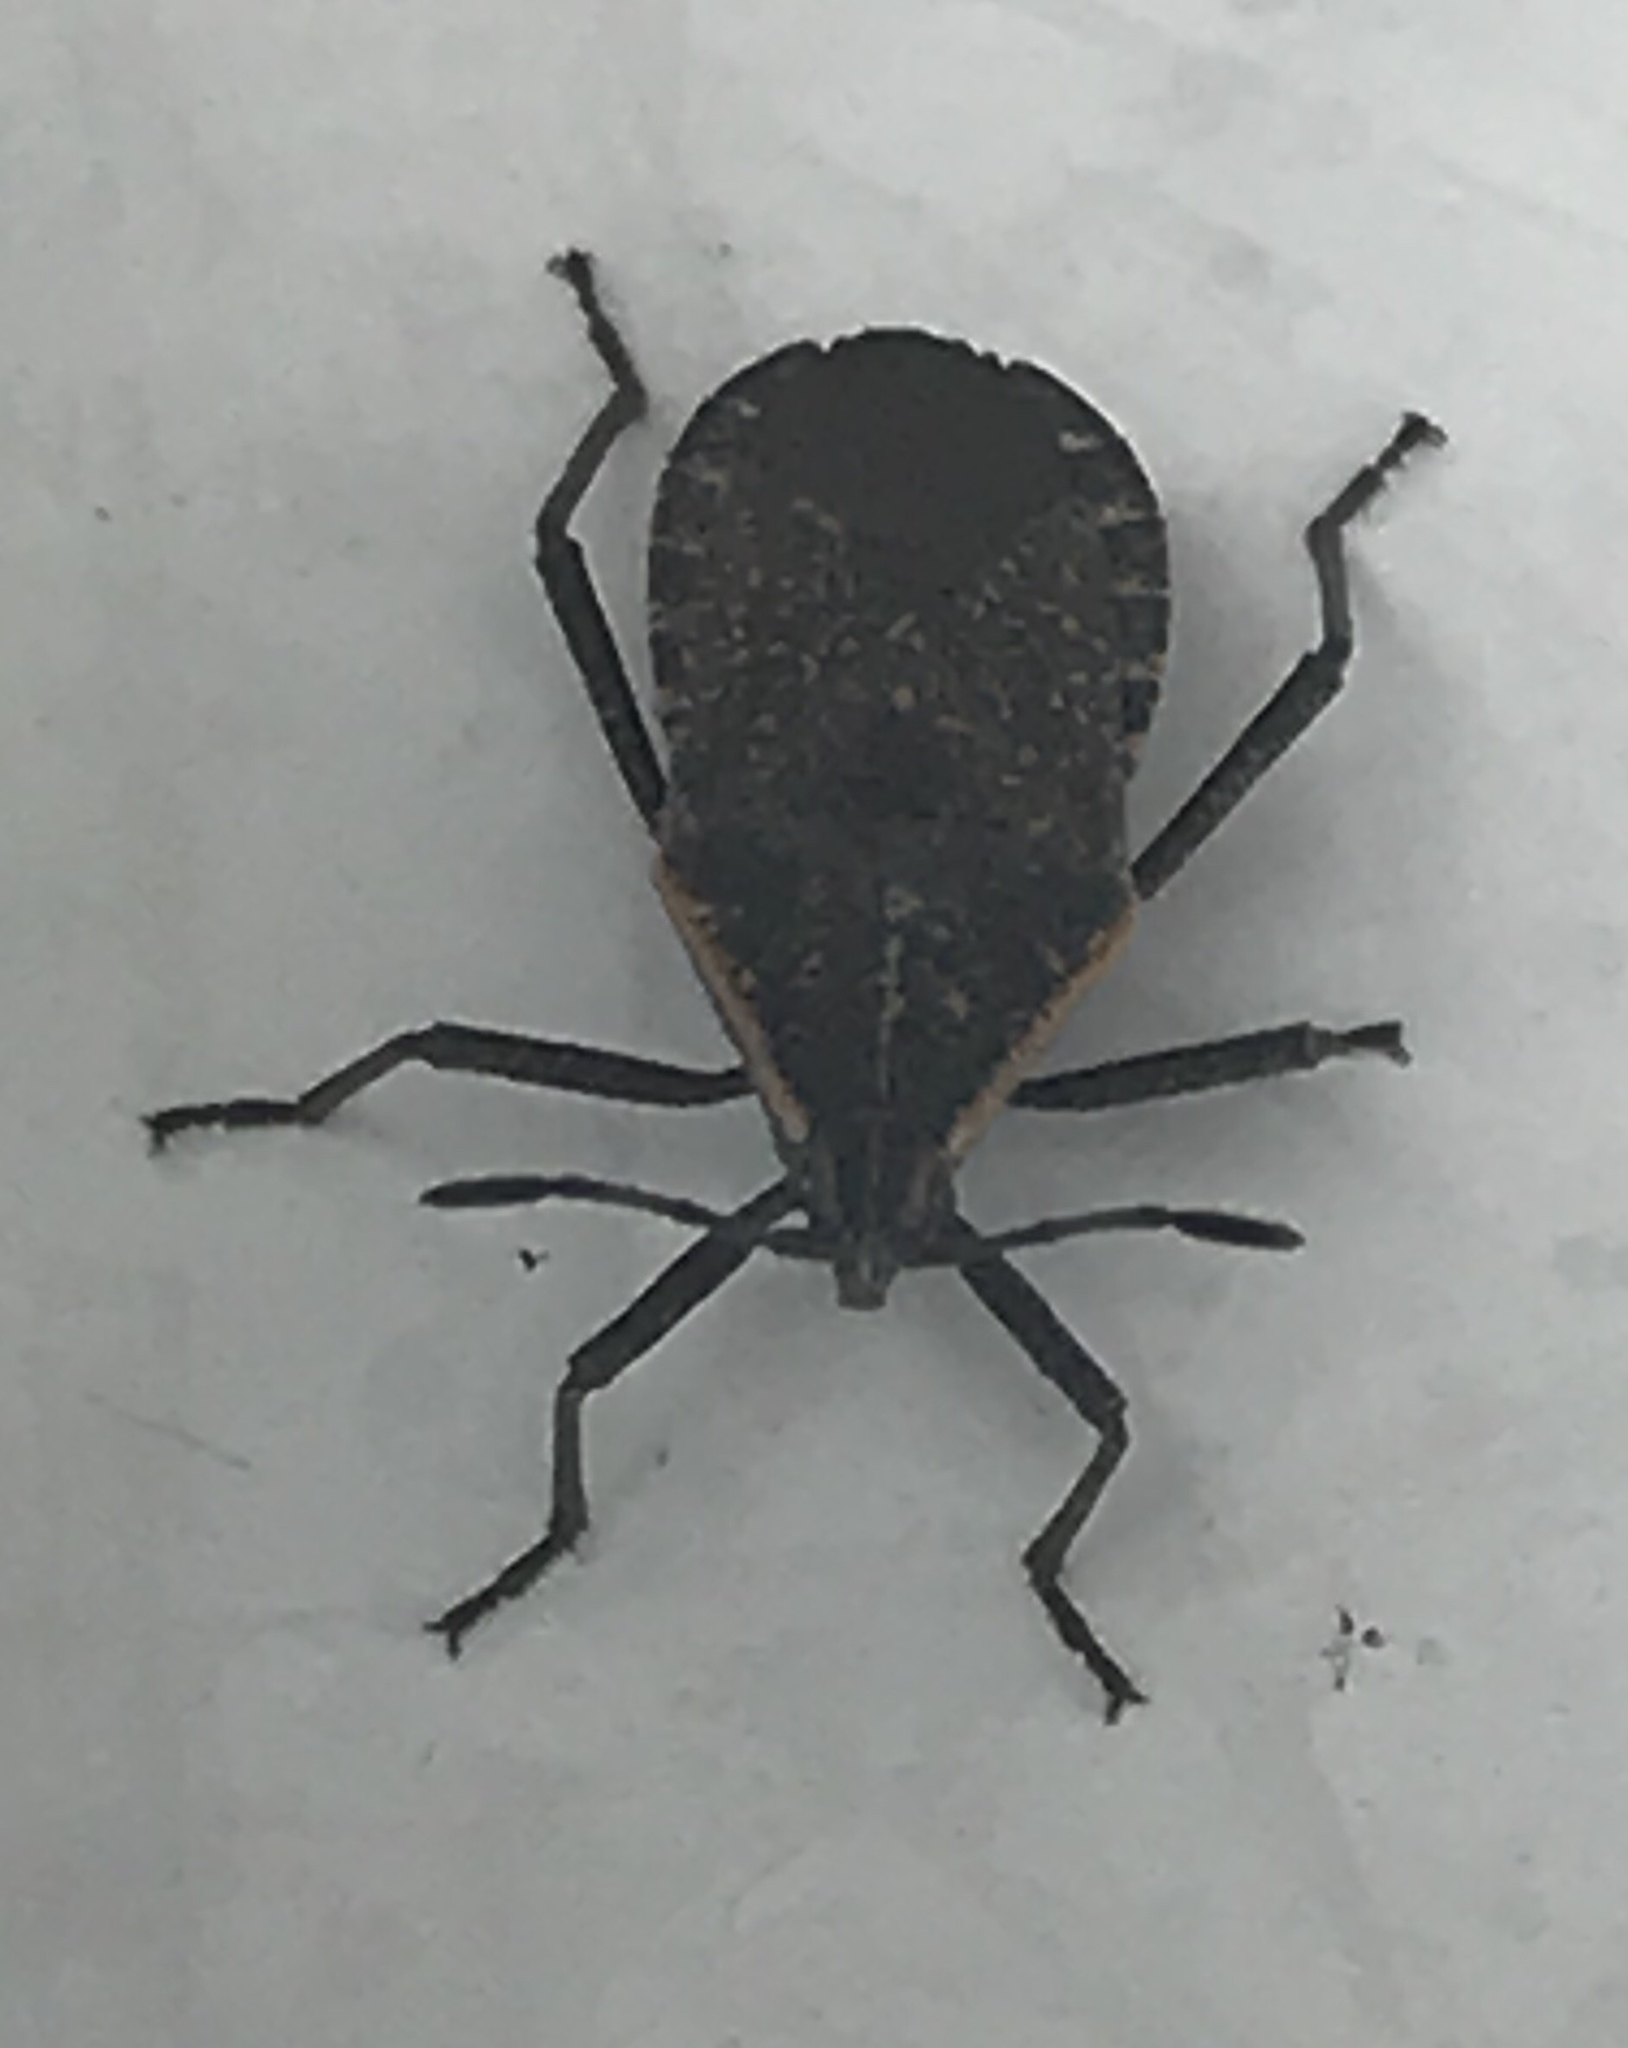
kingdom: Animalia
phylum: Arthropoda
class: Insecta
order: Hemiptera
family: Coreidae
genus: Anasa
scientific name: Anasa tristis
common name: Squash bug
